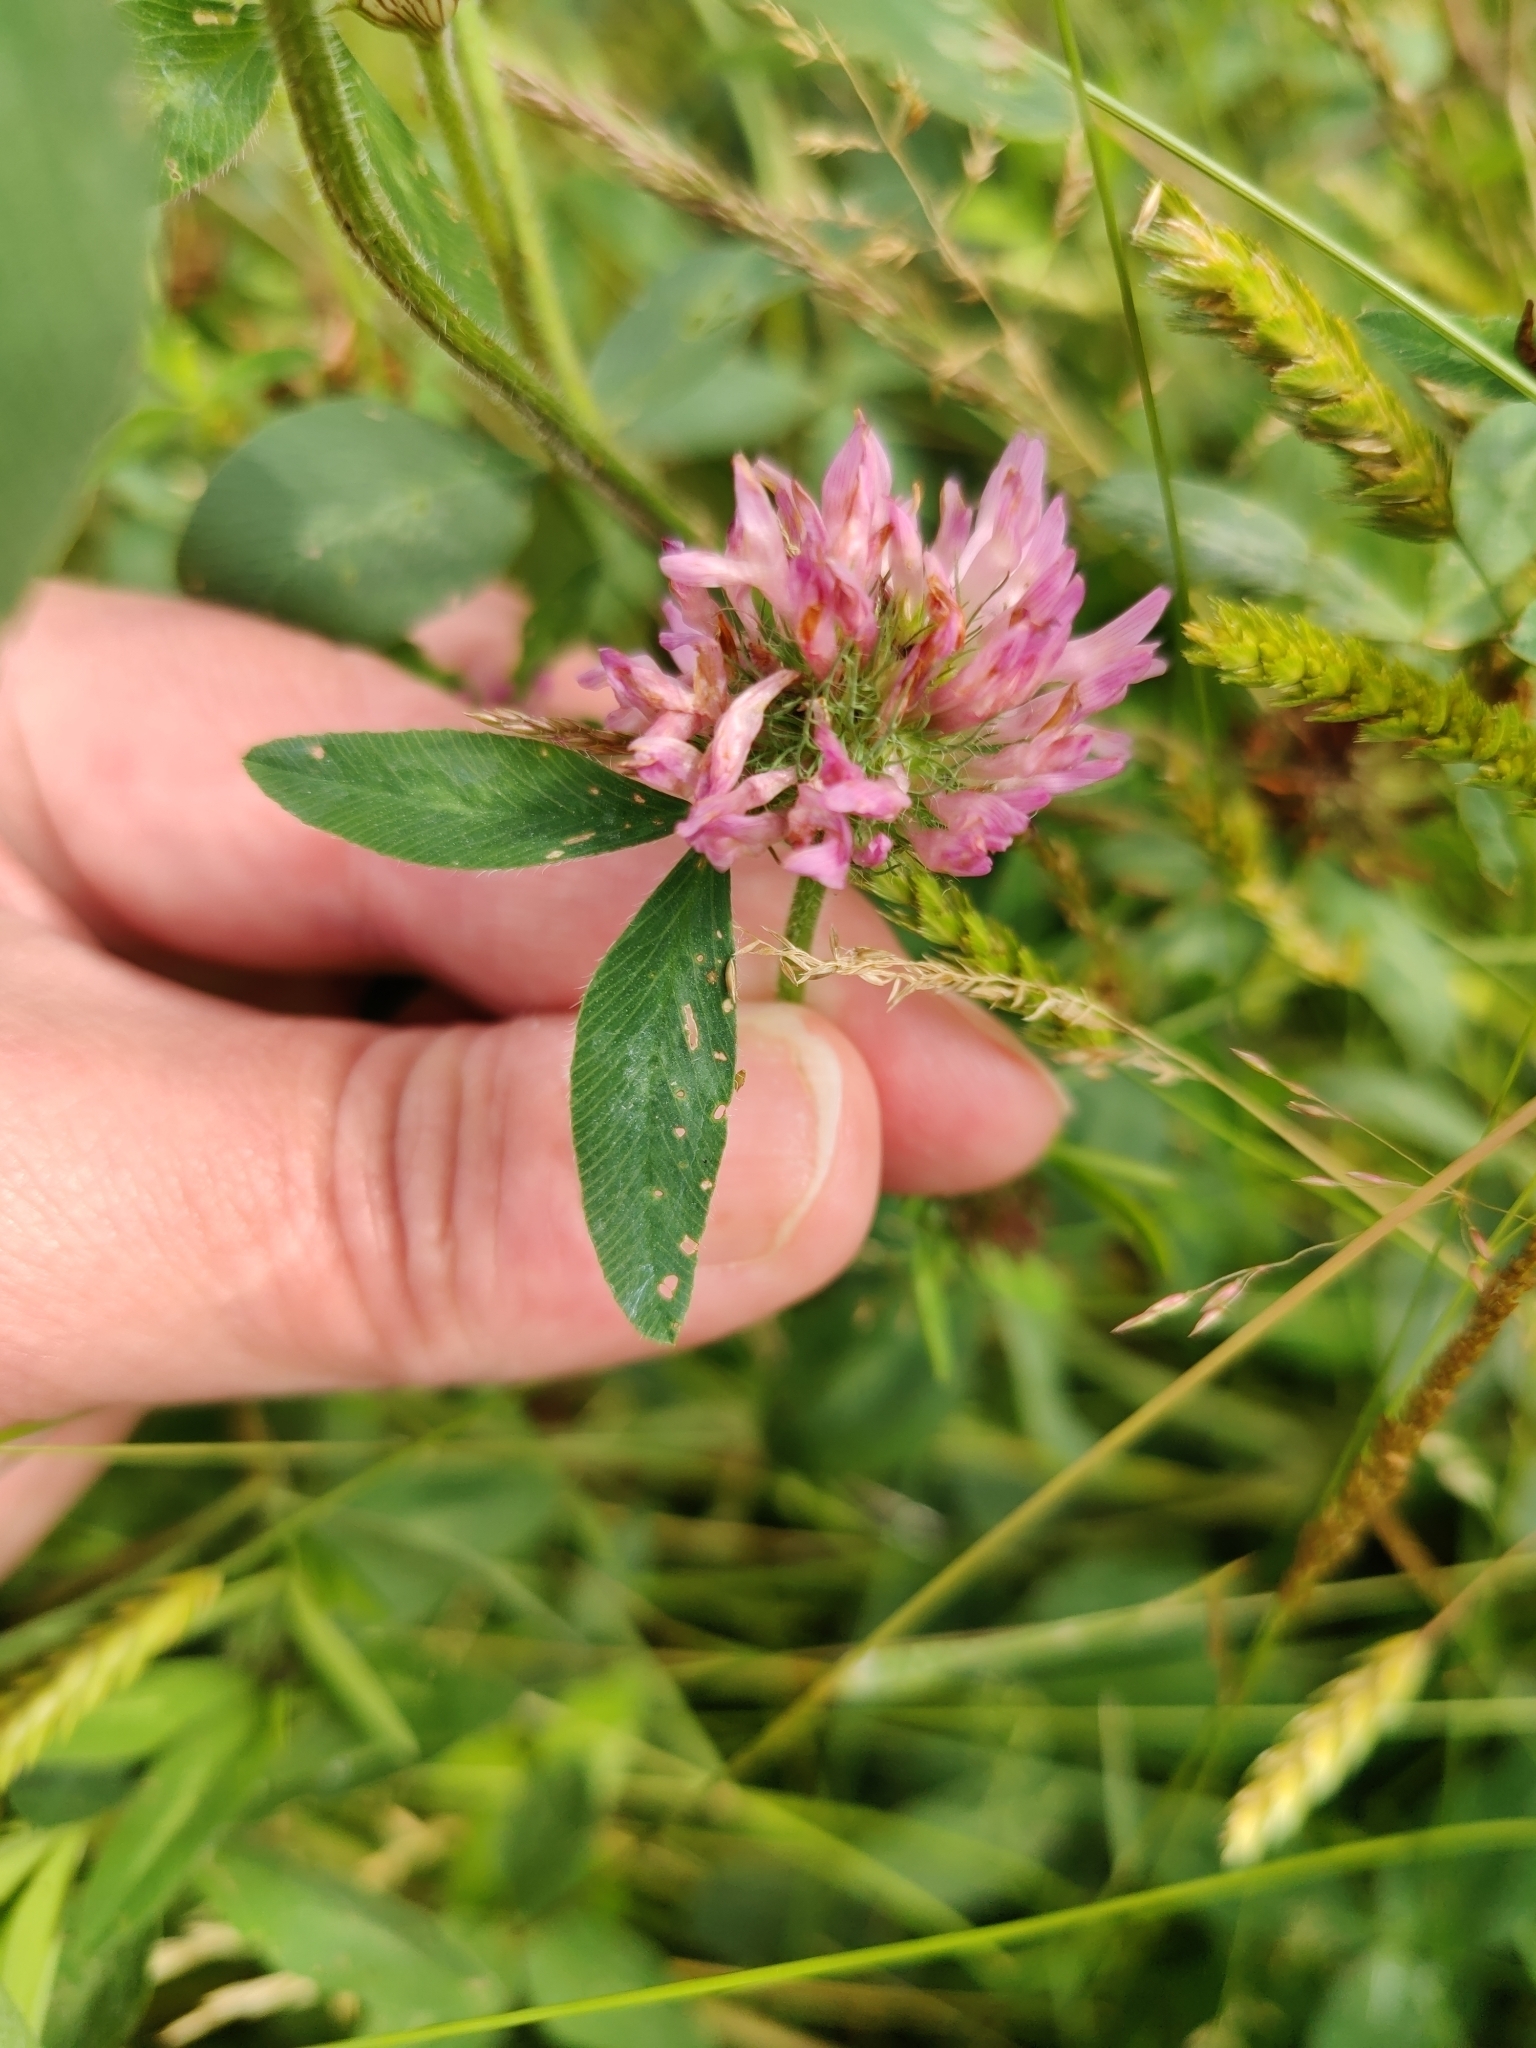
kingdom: Plantae
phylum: Tracheophyta
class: Magnoliopsida
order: Fabales
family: Fabaceae
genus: Trifolium
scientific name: Trifolium pratense
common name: Red clover
